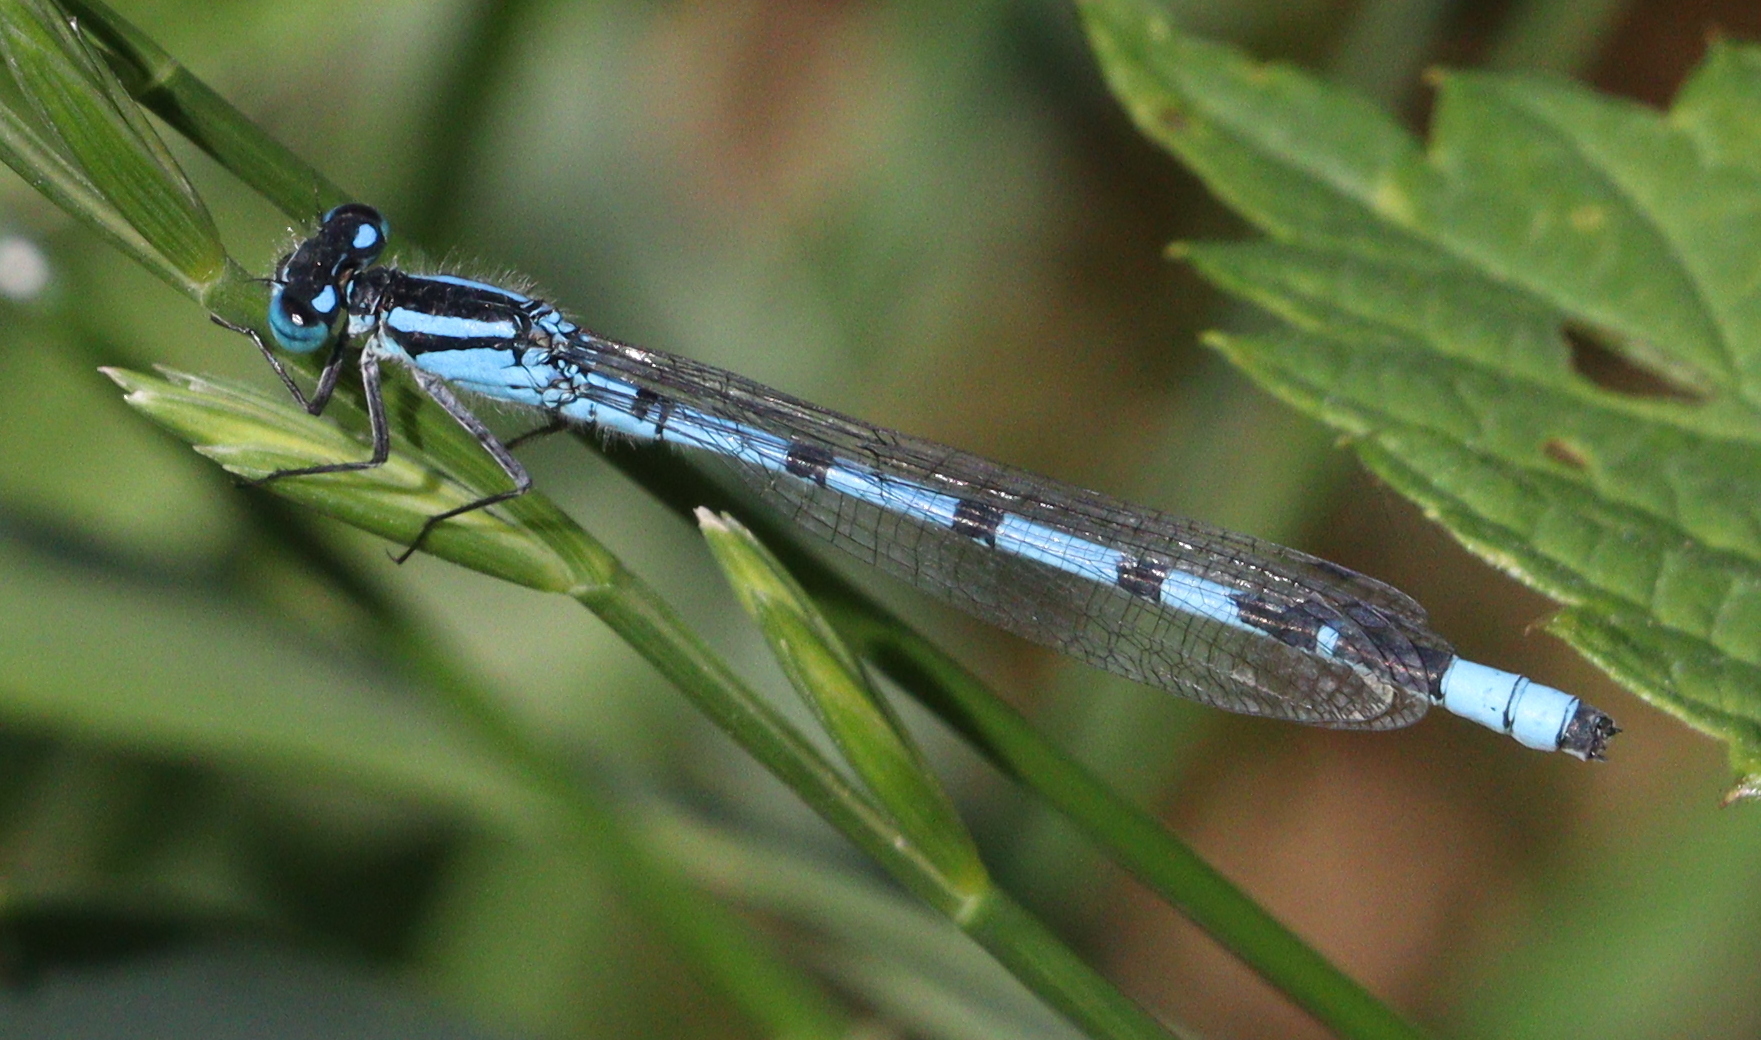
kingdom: Animalia
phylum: Arthropoda
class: Insecta
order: Odonata
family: Coenagrionidae
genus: Enallagma
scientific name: Enallagma cyathigerum
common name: Common blue damselfly
